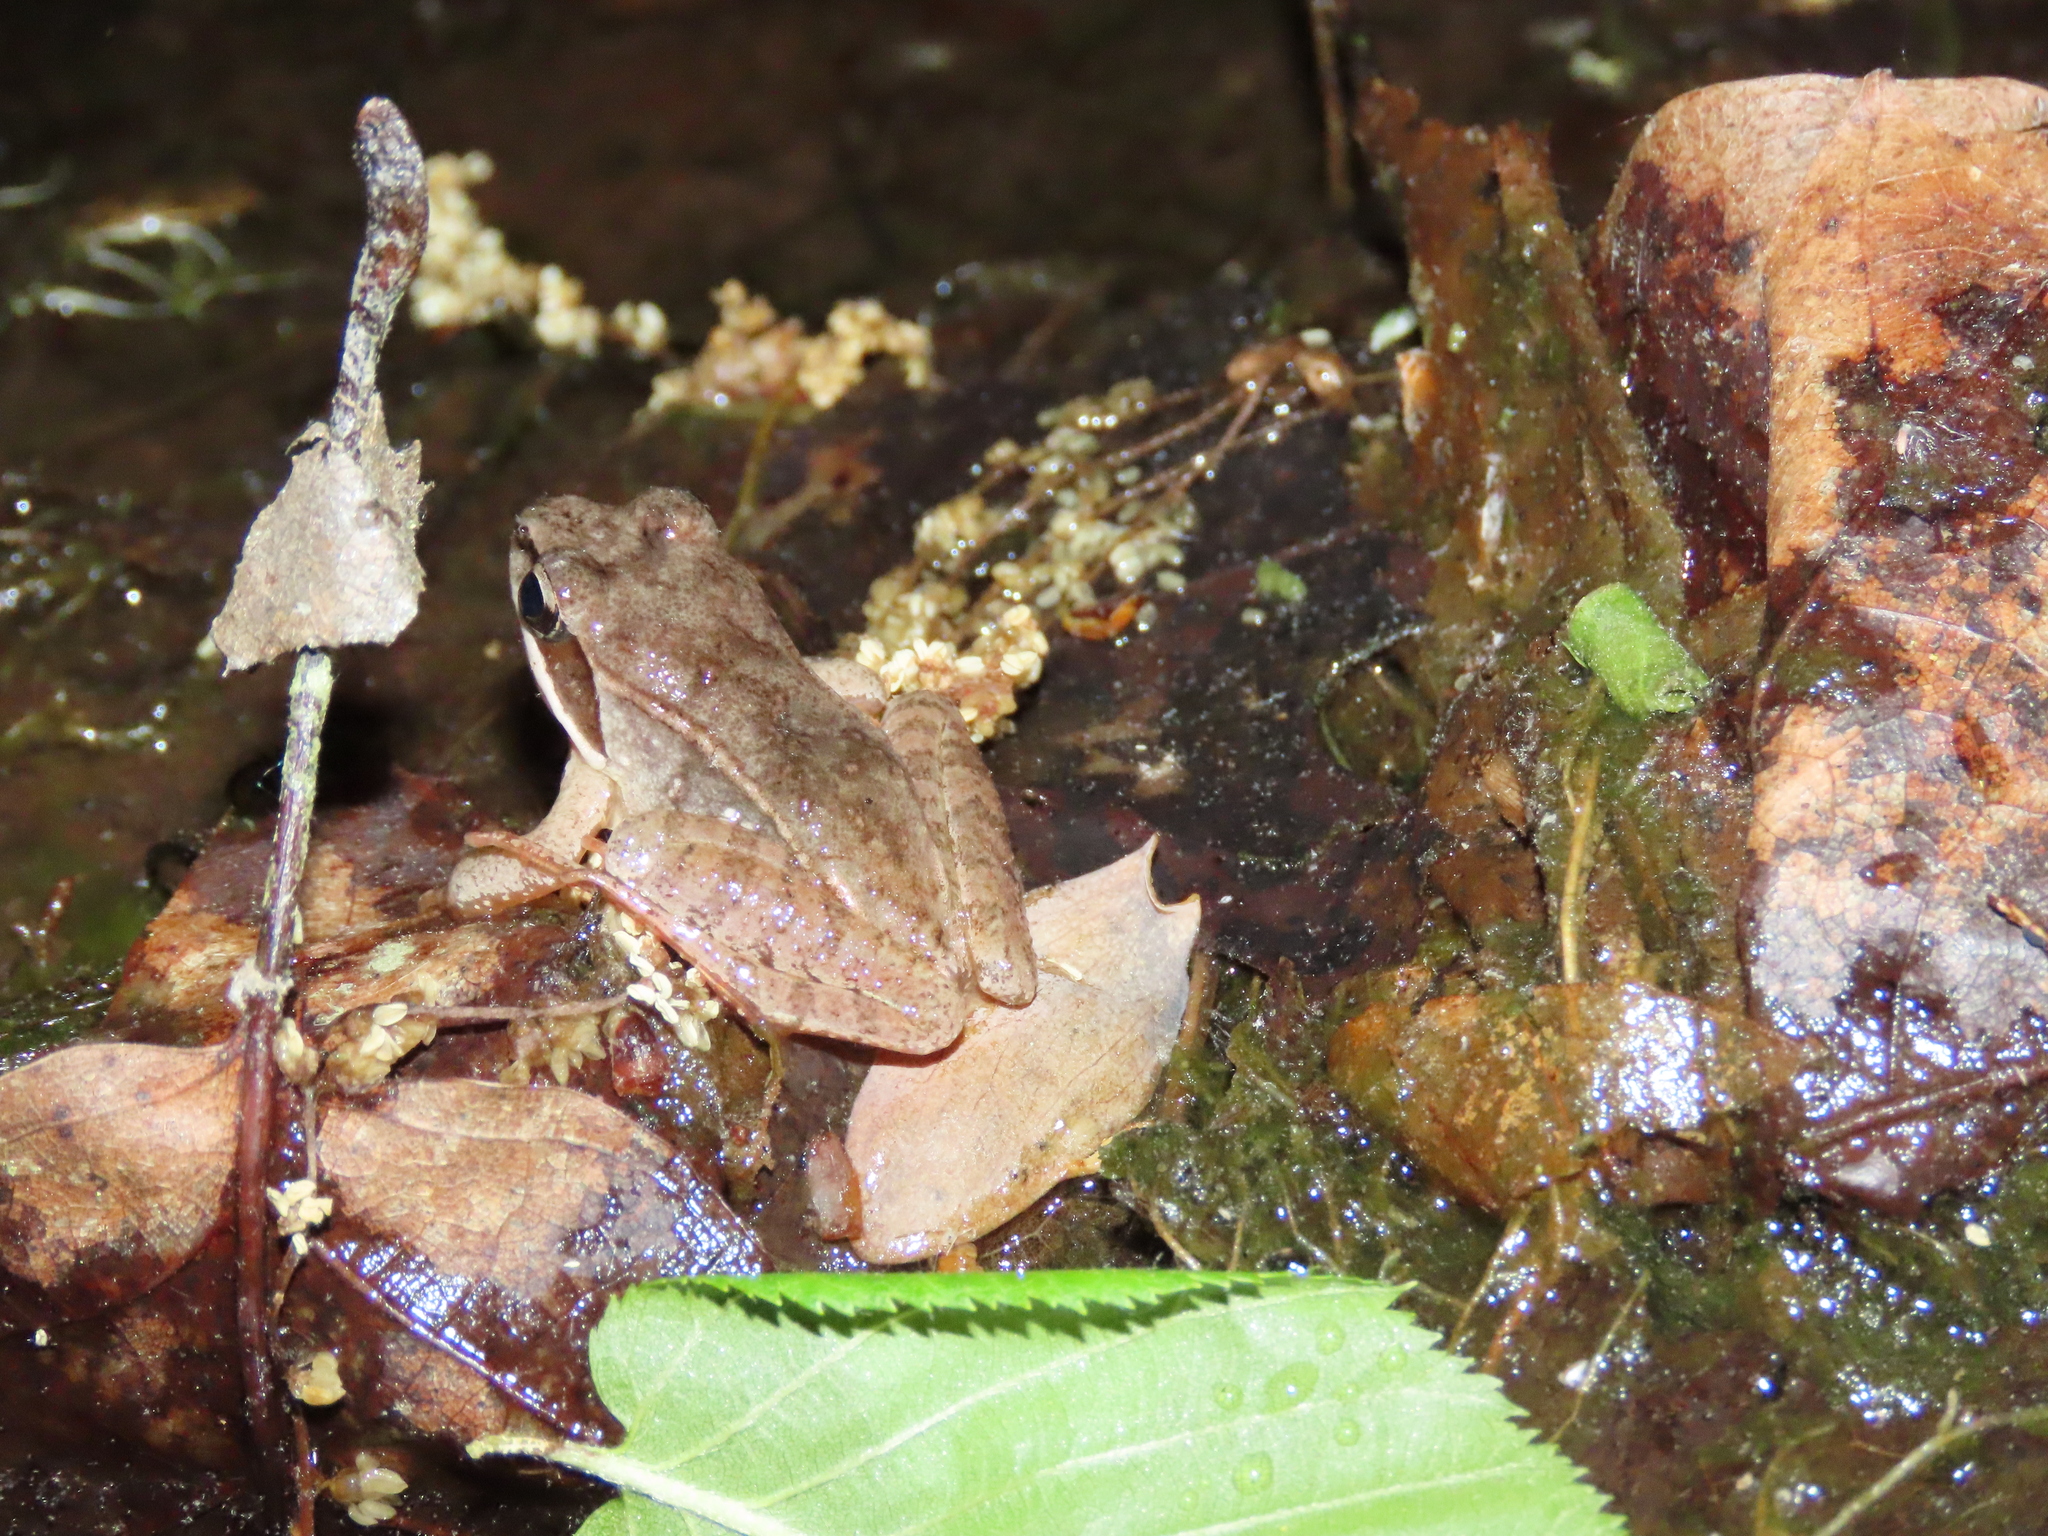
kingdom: Animalia
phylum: Chordata
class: Amphibia
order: Anura
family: Ranidae
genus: Lithobates
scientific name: Lithobates sylvaticus
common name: Wood frog
